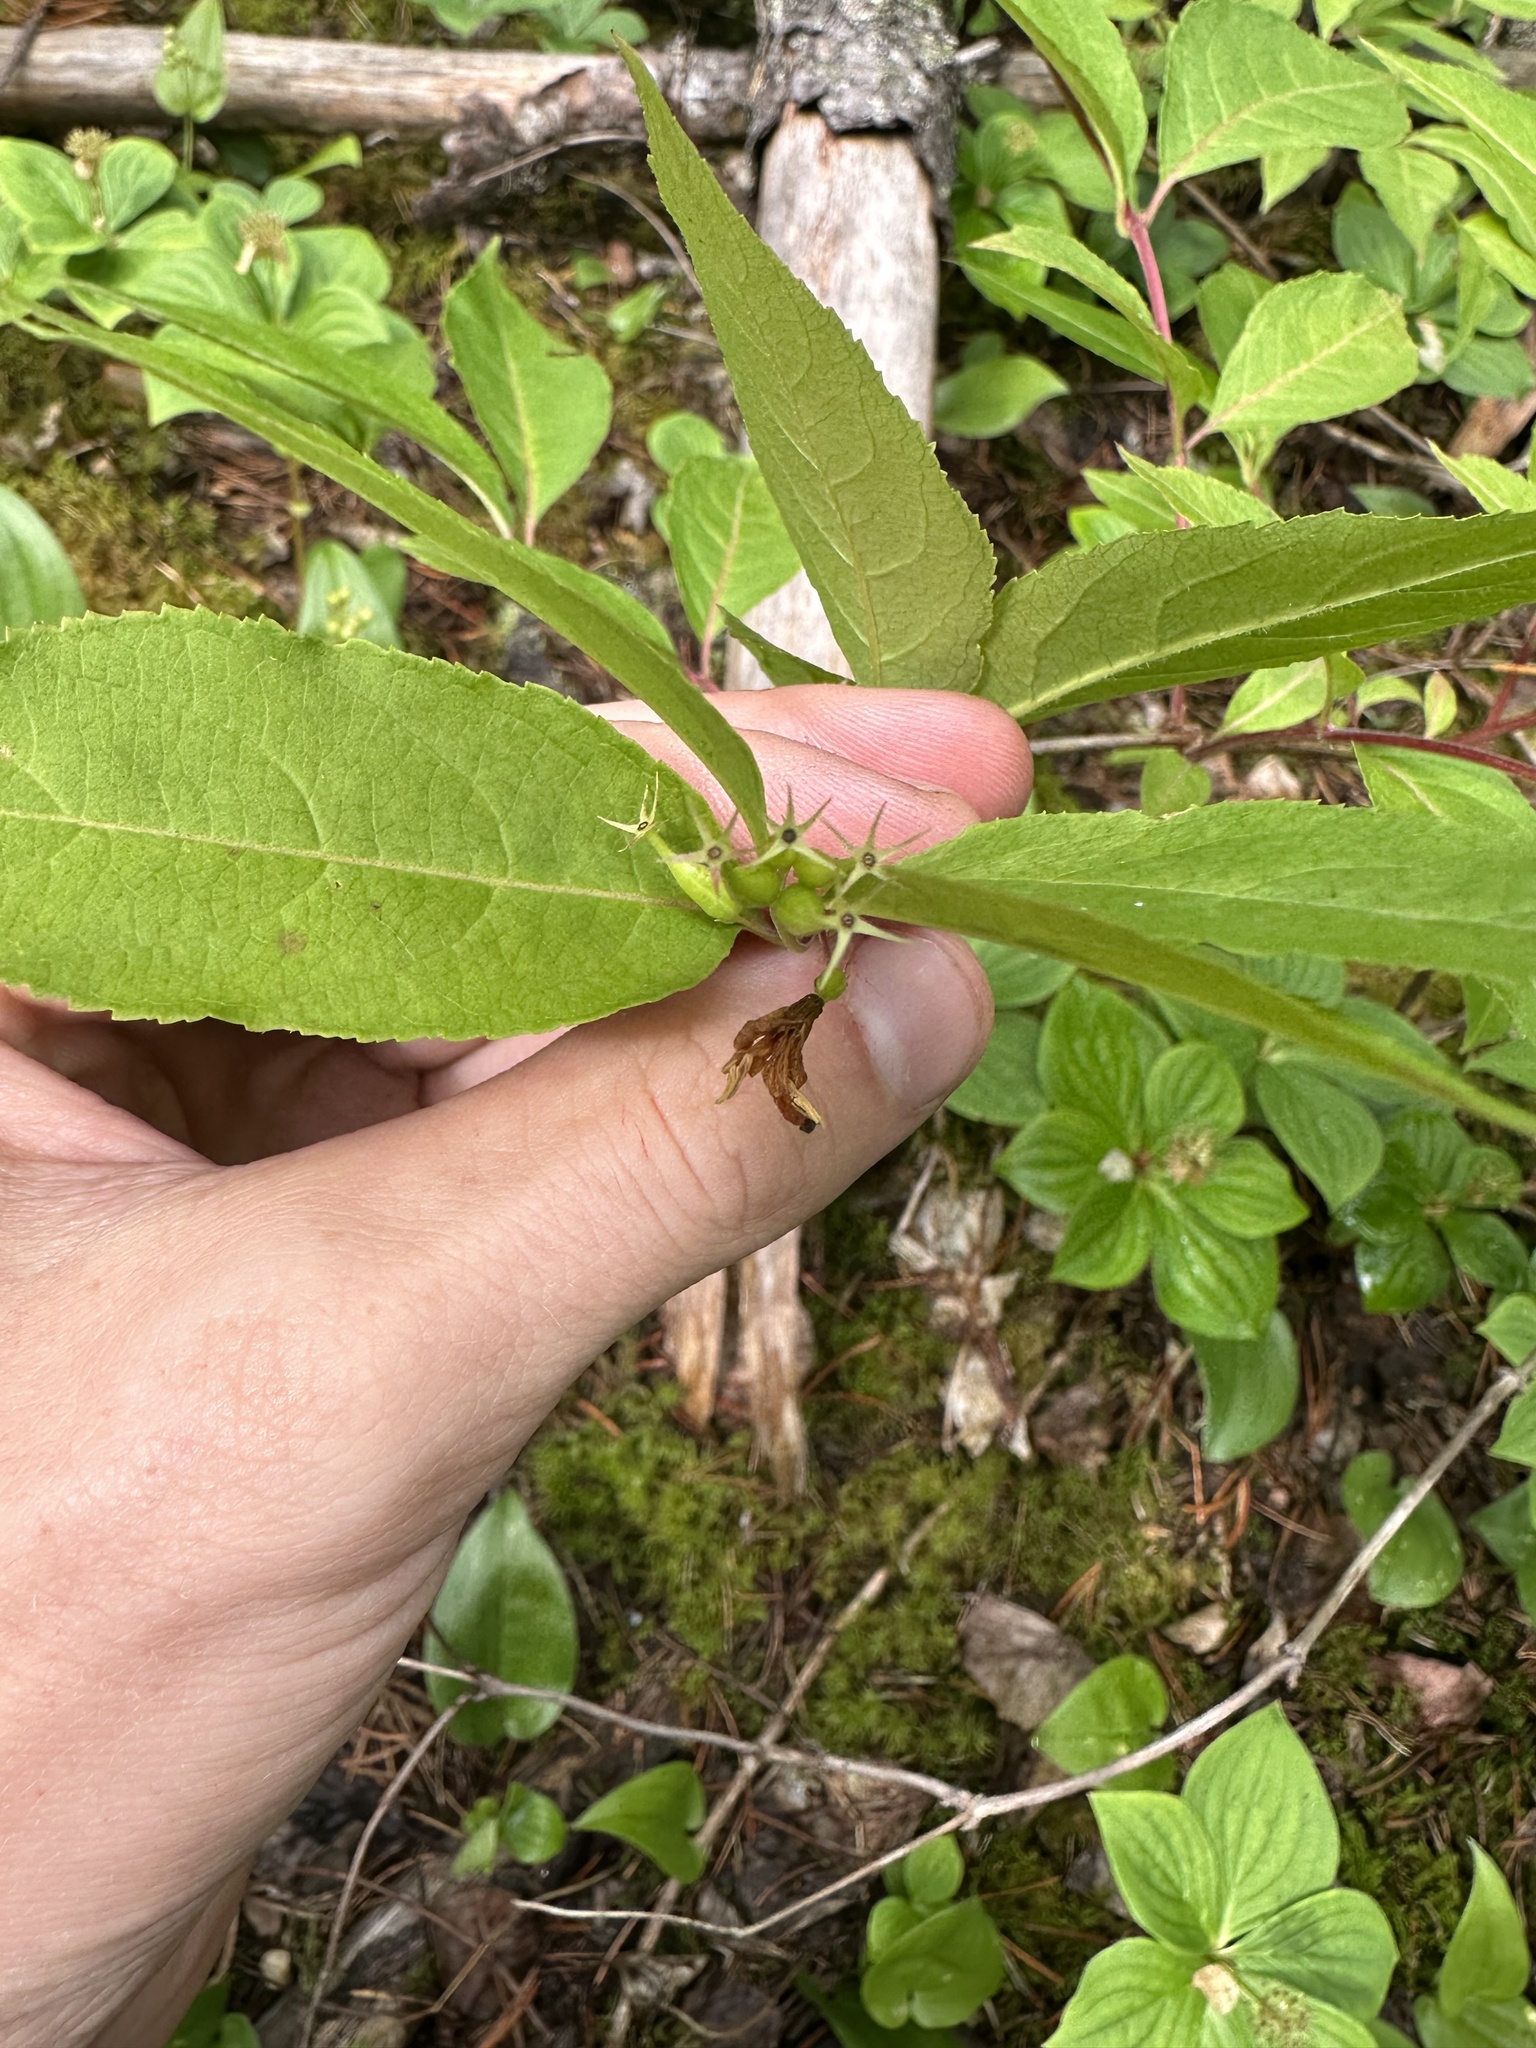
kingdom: Plantae
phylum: Tracheophyta
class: Magnoliopsida
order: Dipsacales
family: Caprifoliaceae
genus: Diervilla
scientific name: Diervilla lonicera
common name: Bush-honeysuckle
